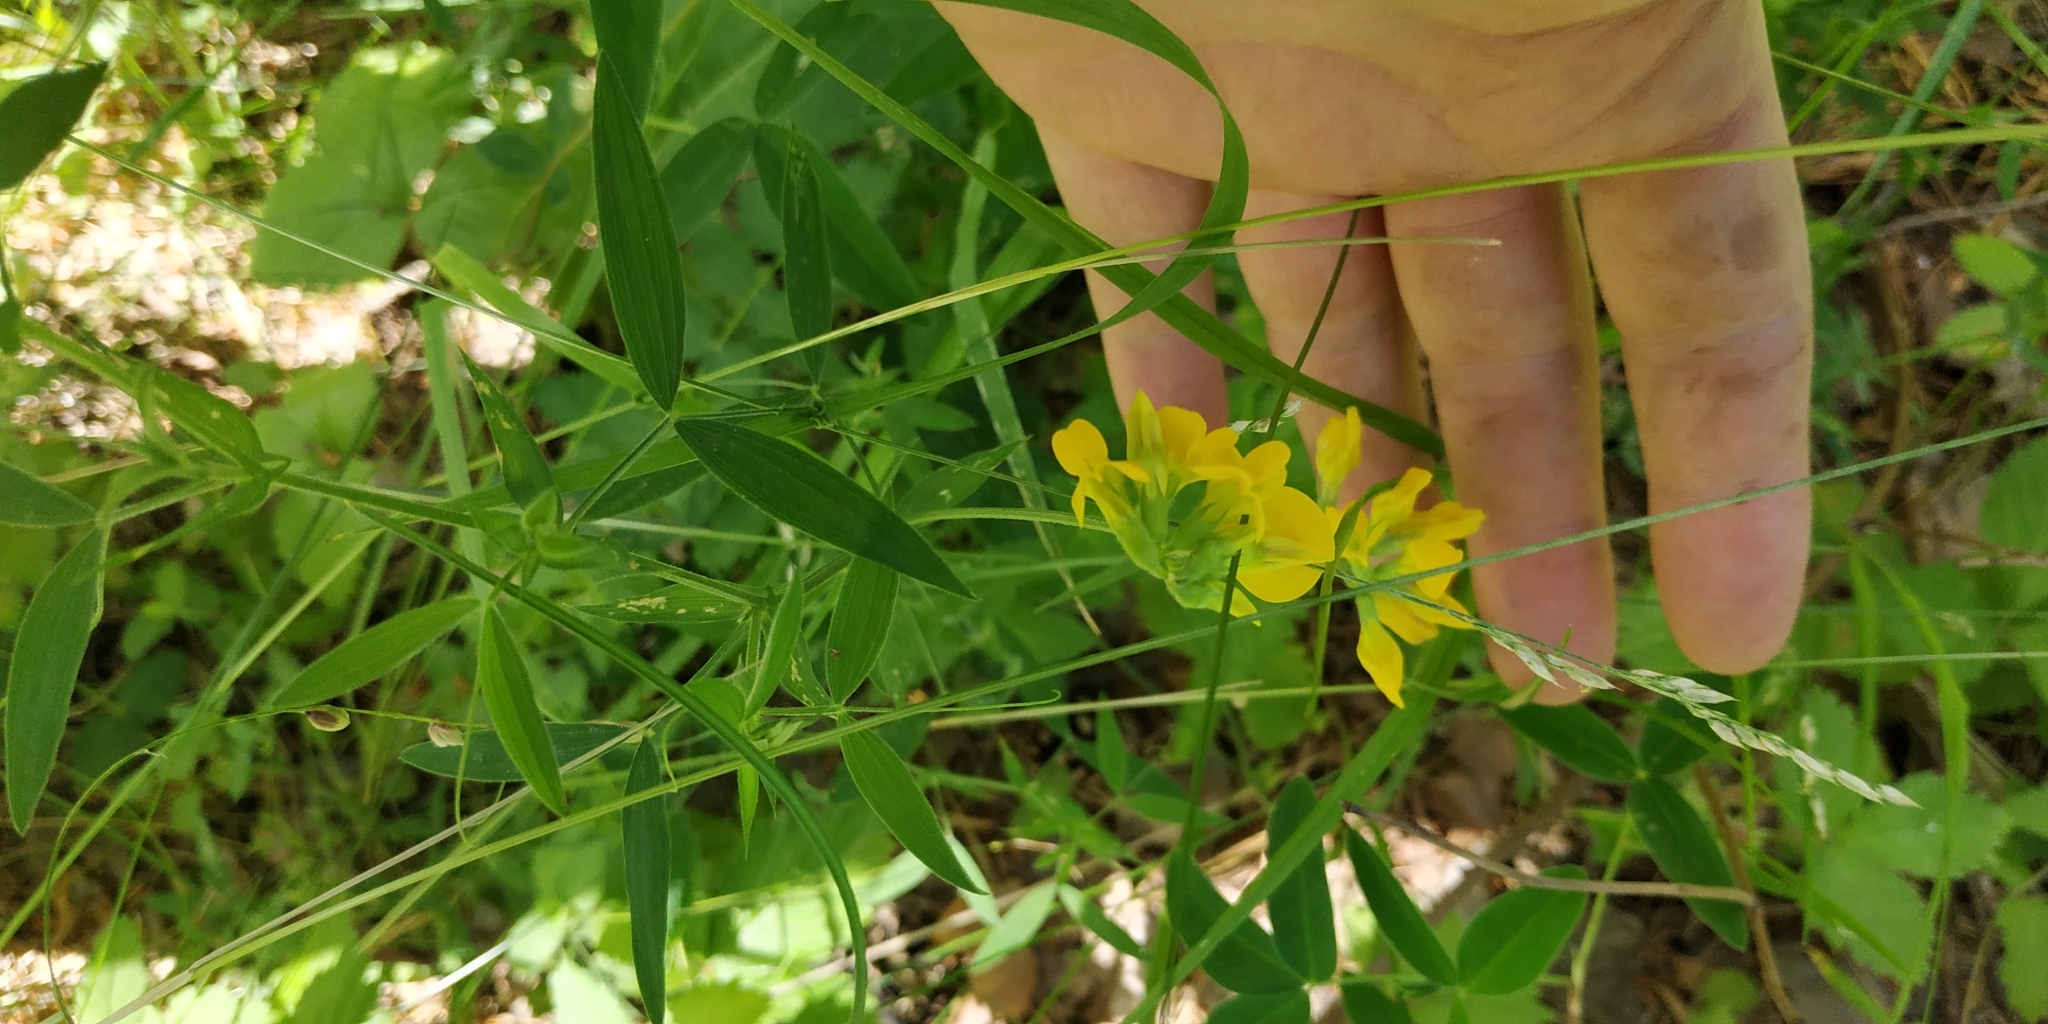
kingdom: Plantae
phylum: Tracheophyta
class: Magnoliopsida
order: Fabales
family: Fabaceae
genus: Lathyrus
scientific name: Lathyrus pratensis
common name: Meadow vetchling
